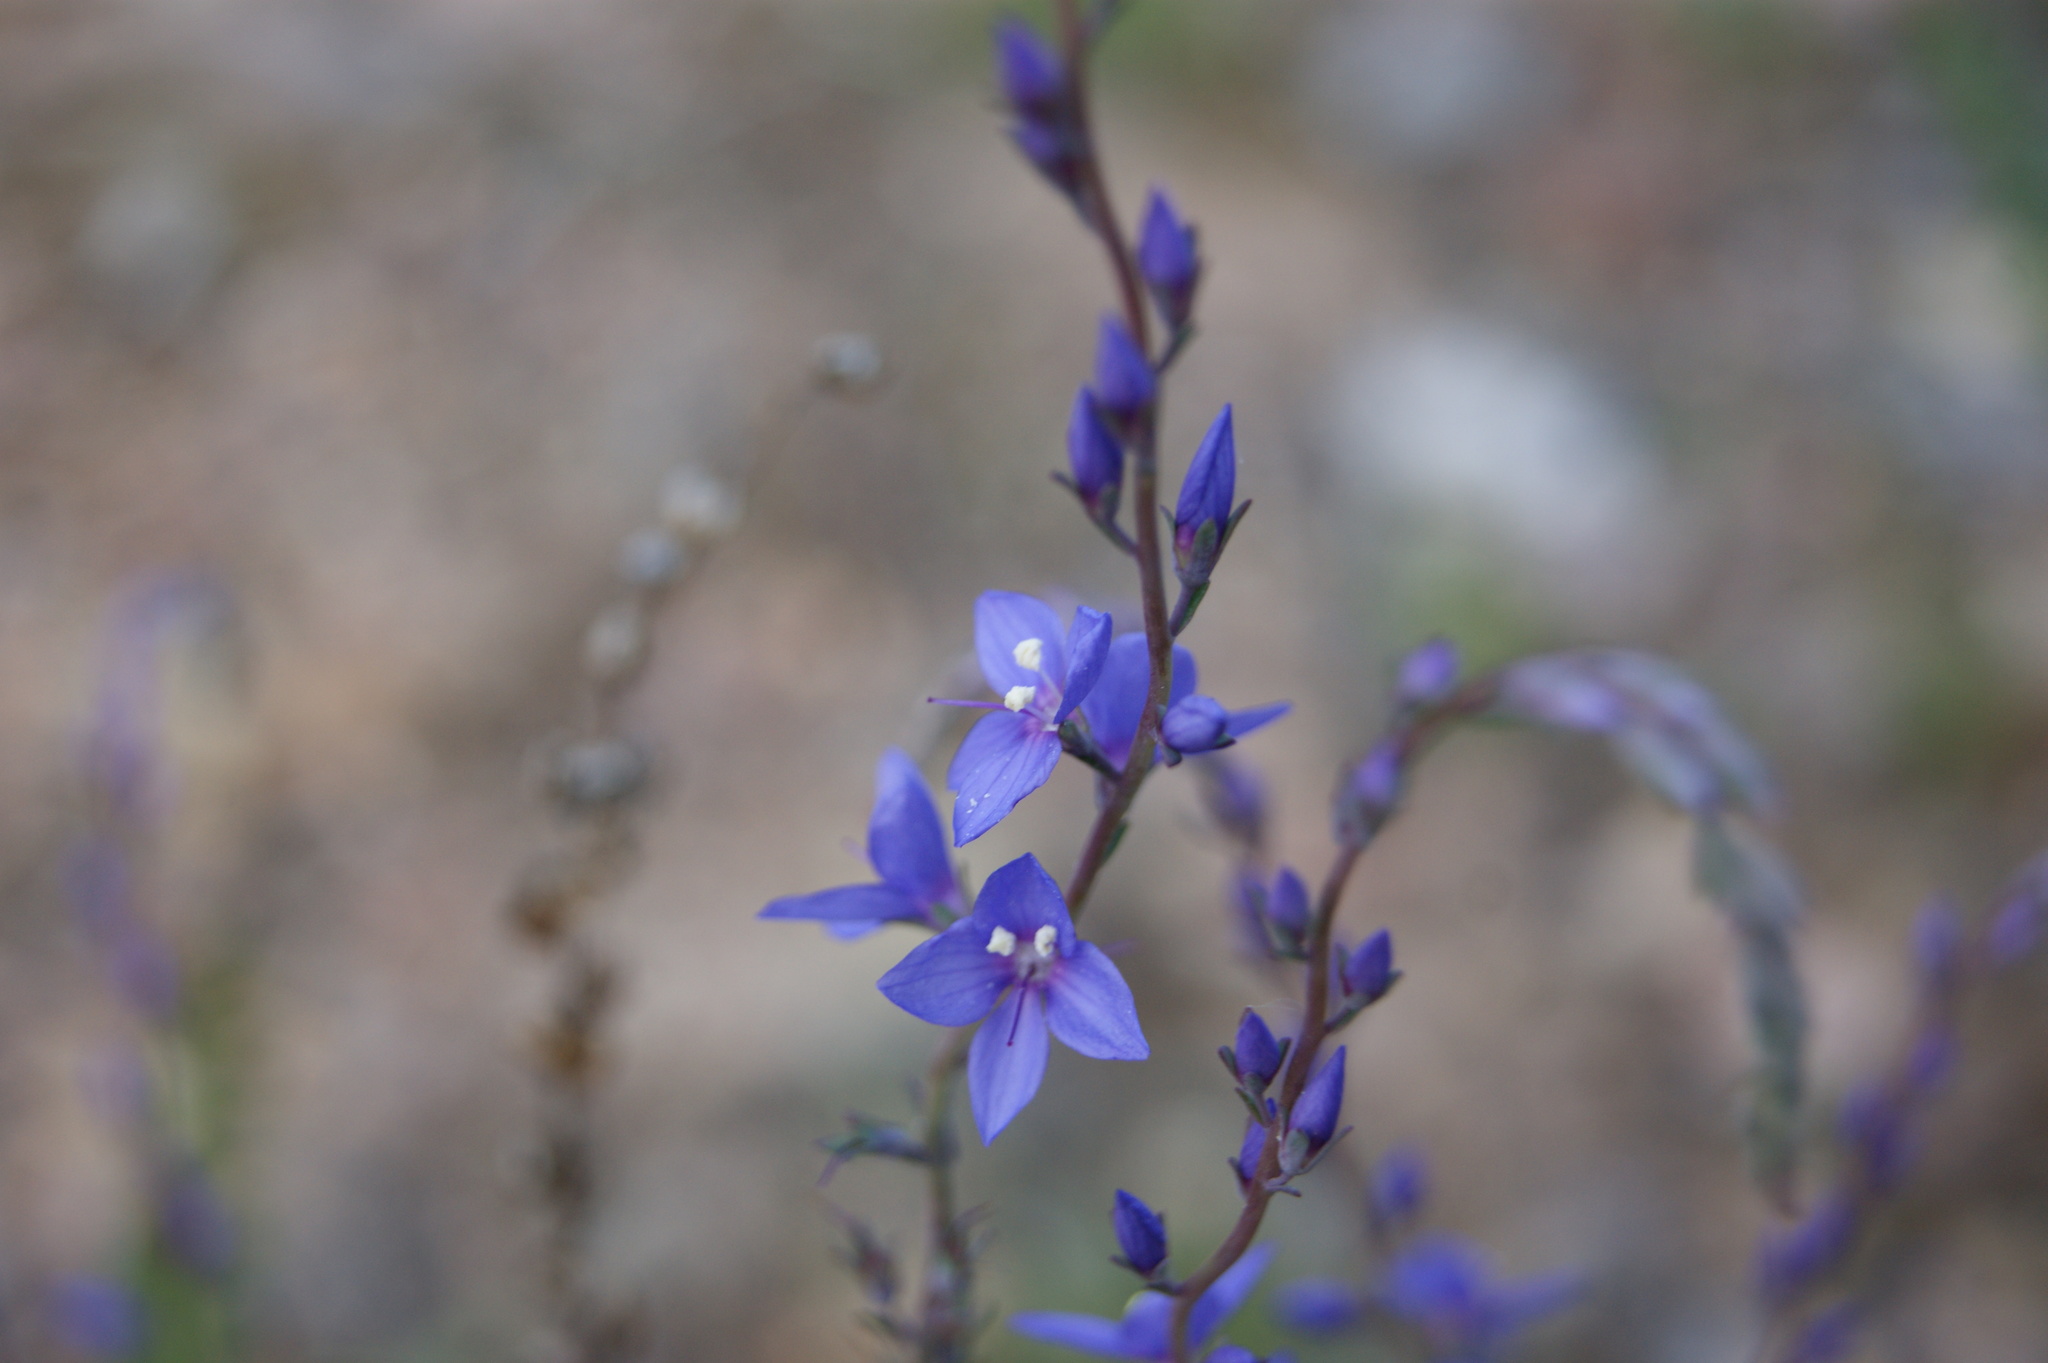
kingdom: Plantae
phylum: Tracheophyta
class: Magnoliopsida
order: Lamiales
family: Plantaginaceae
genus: Veronica
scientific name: Veronica perfoliata
